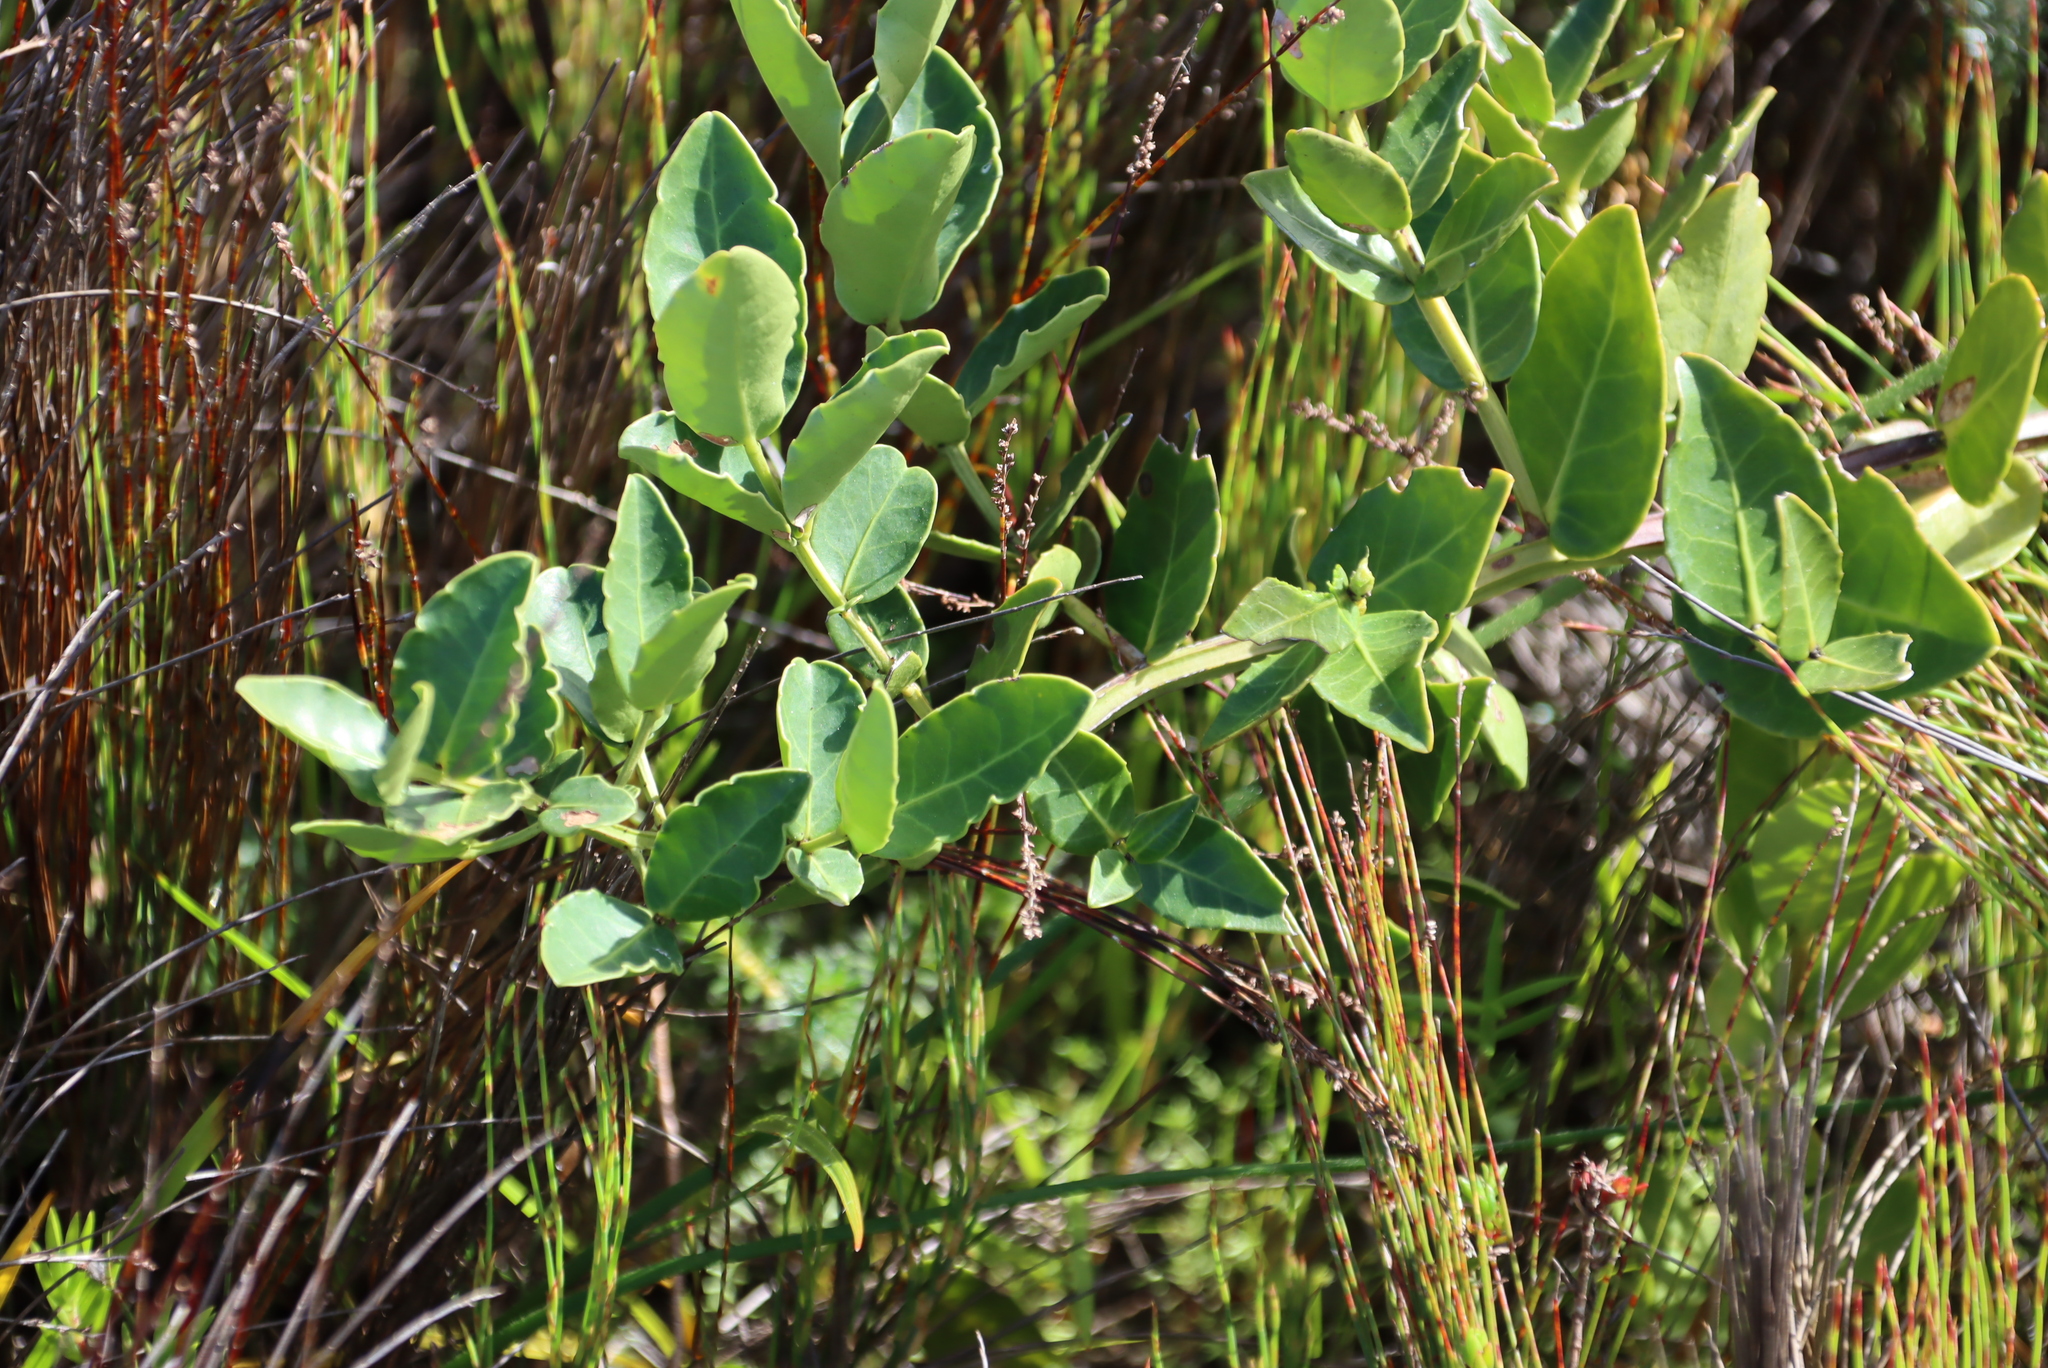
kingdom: Plantae
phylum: Tracheophyta
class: Magnoliopsida
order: Celastrales
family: Celastraceae
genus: Lauridia
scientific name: Lauridia tetragona
